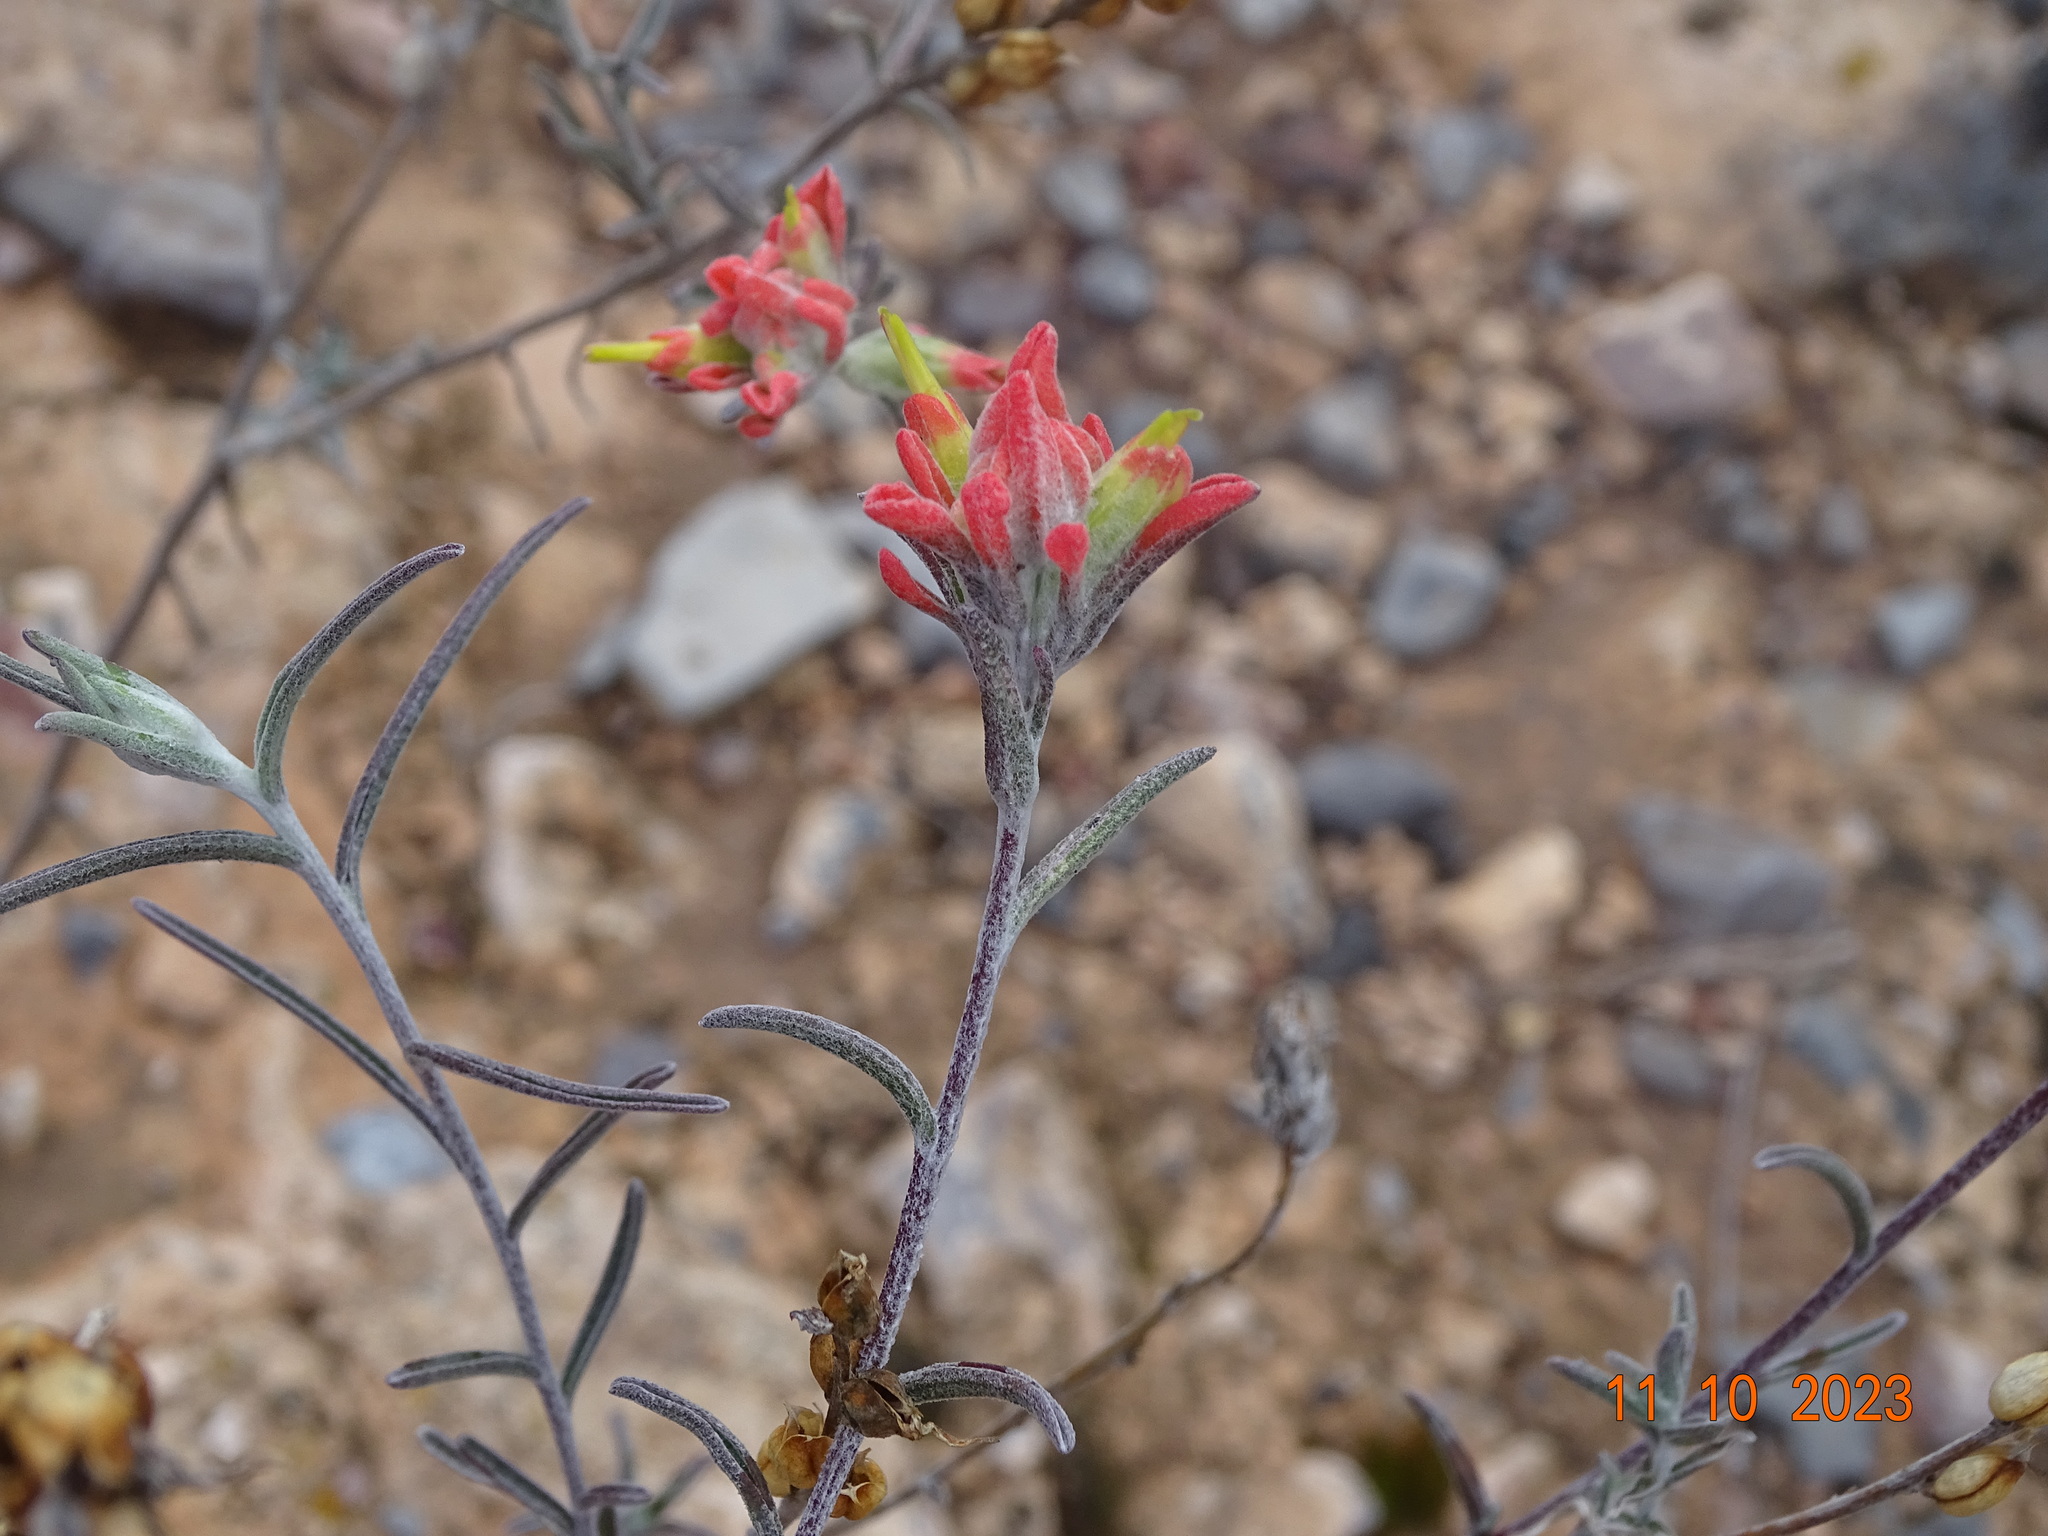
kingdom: Plantae
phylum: Tracheophyta
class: Magnoliopsida
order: Lamiales
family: Orobanchaceae
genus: Castilleja
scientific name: Castilleja lanata
